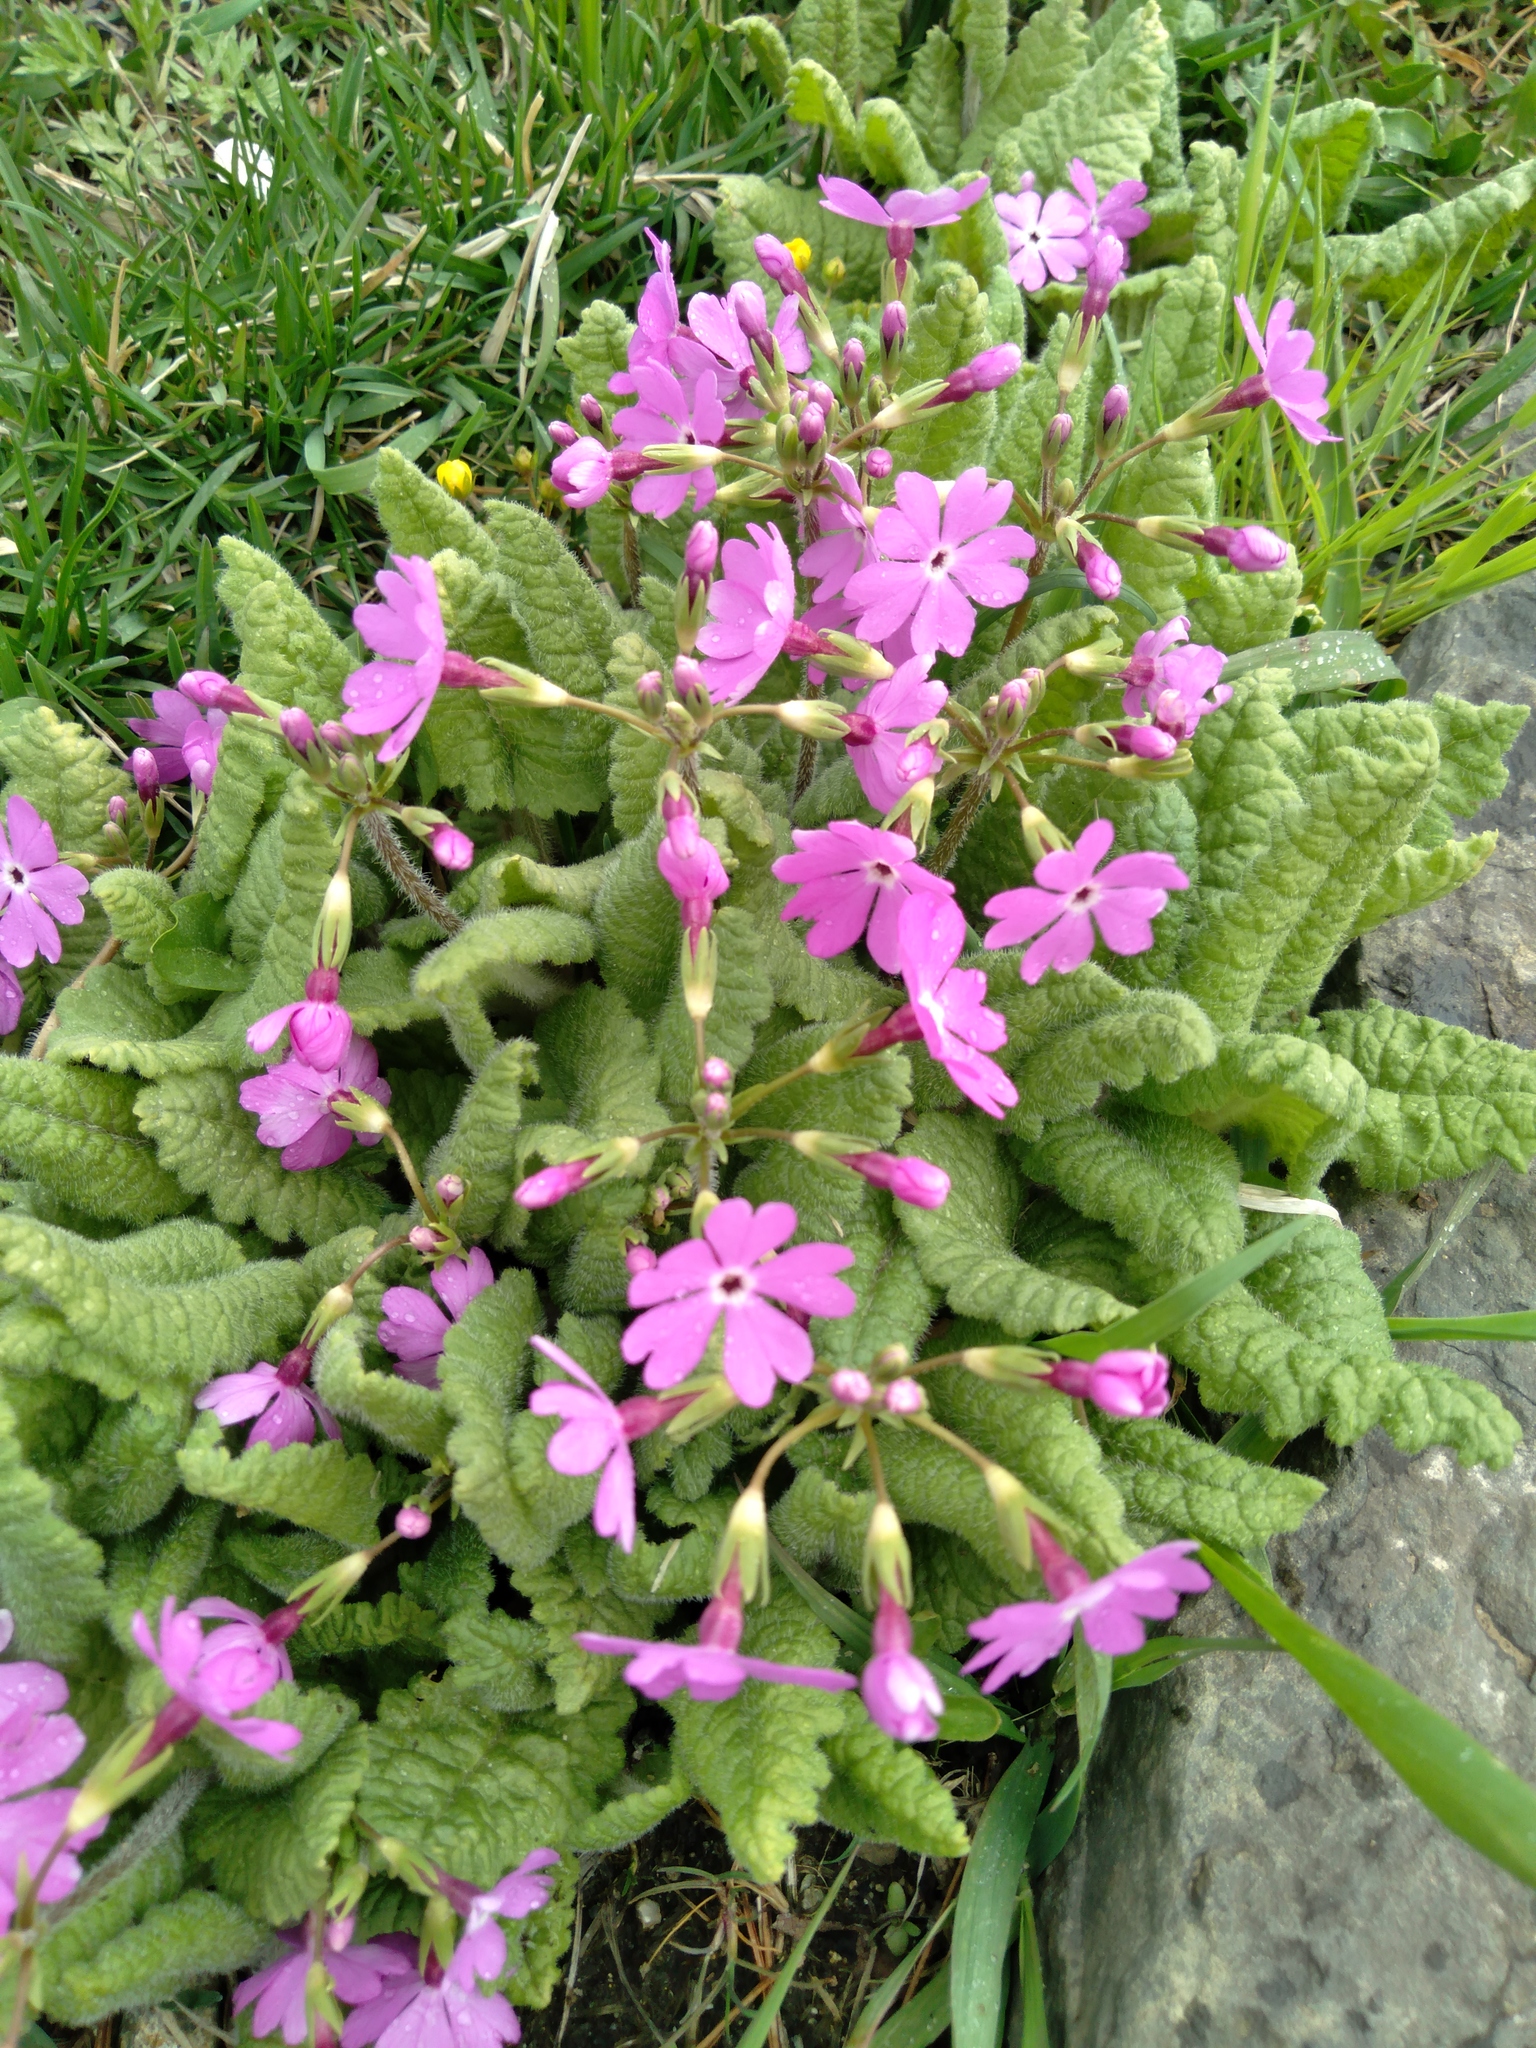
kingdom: Plantae
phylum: Tracheophyta
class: Magnoliopsida
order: Ericales
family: Primulaceae
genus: Primula
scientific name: Primula sieboldii
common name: Japanese primrose
